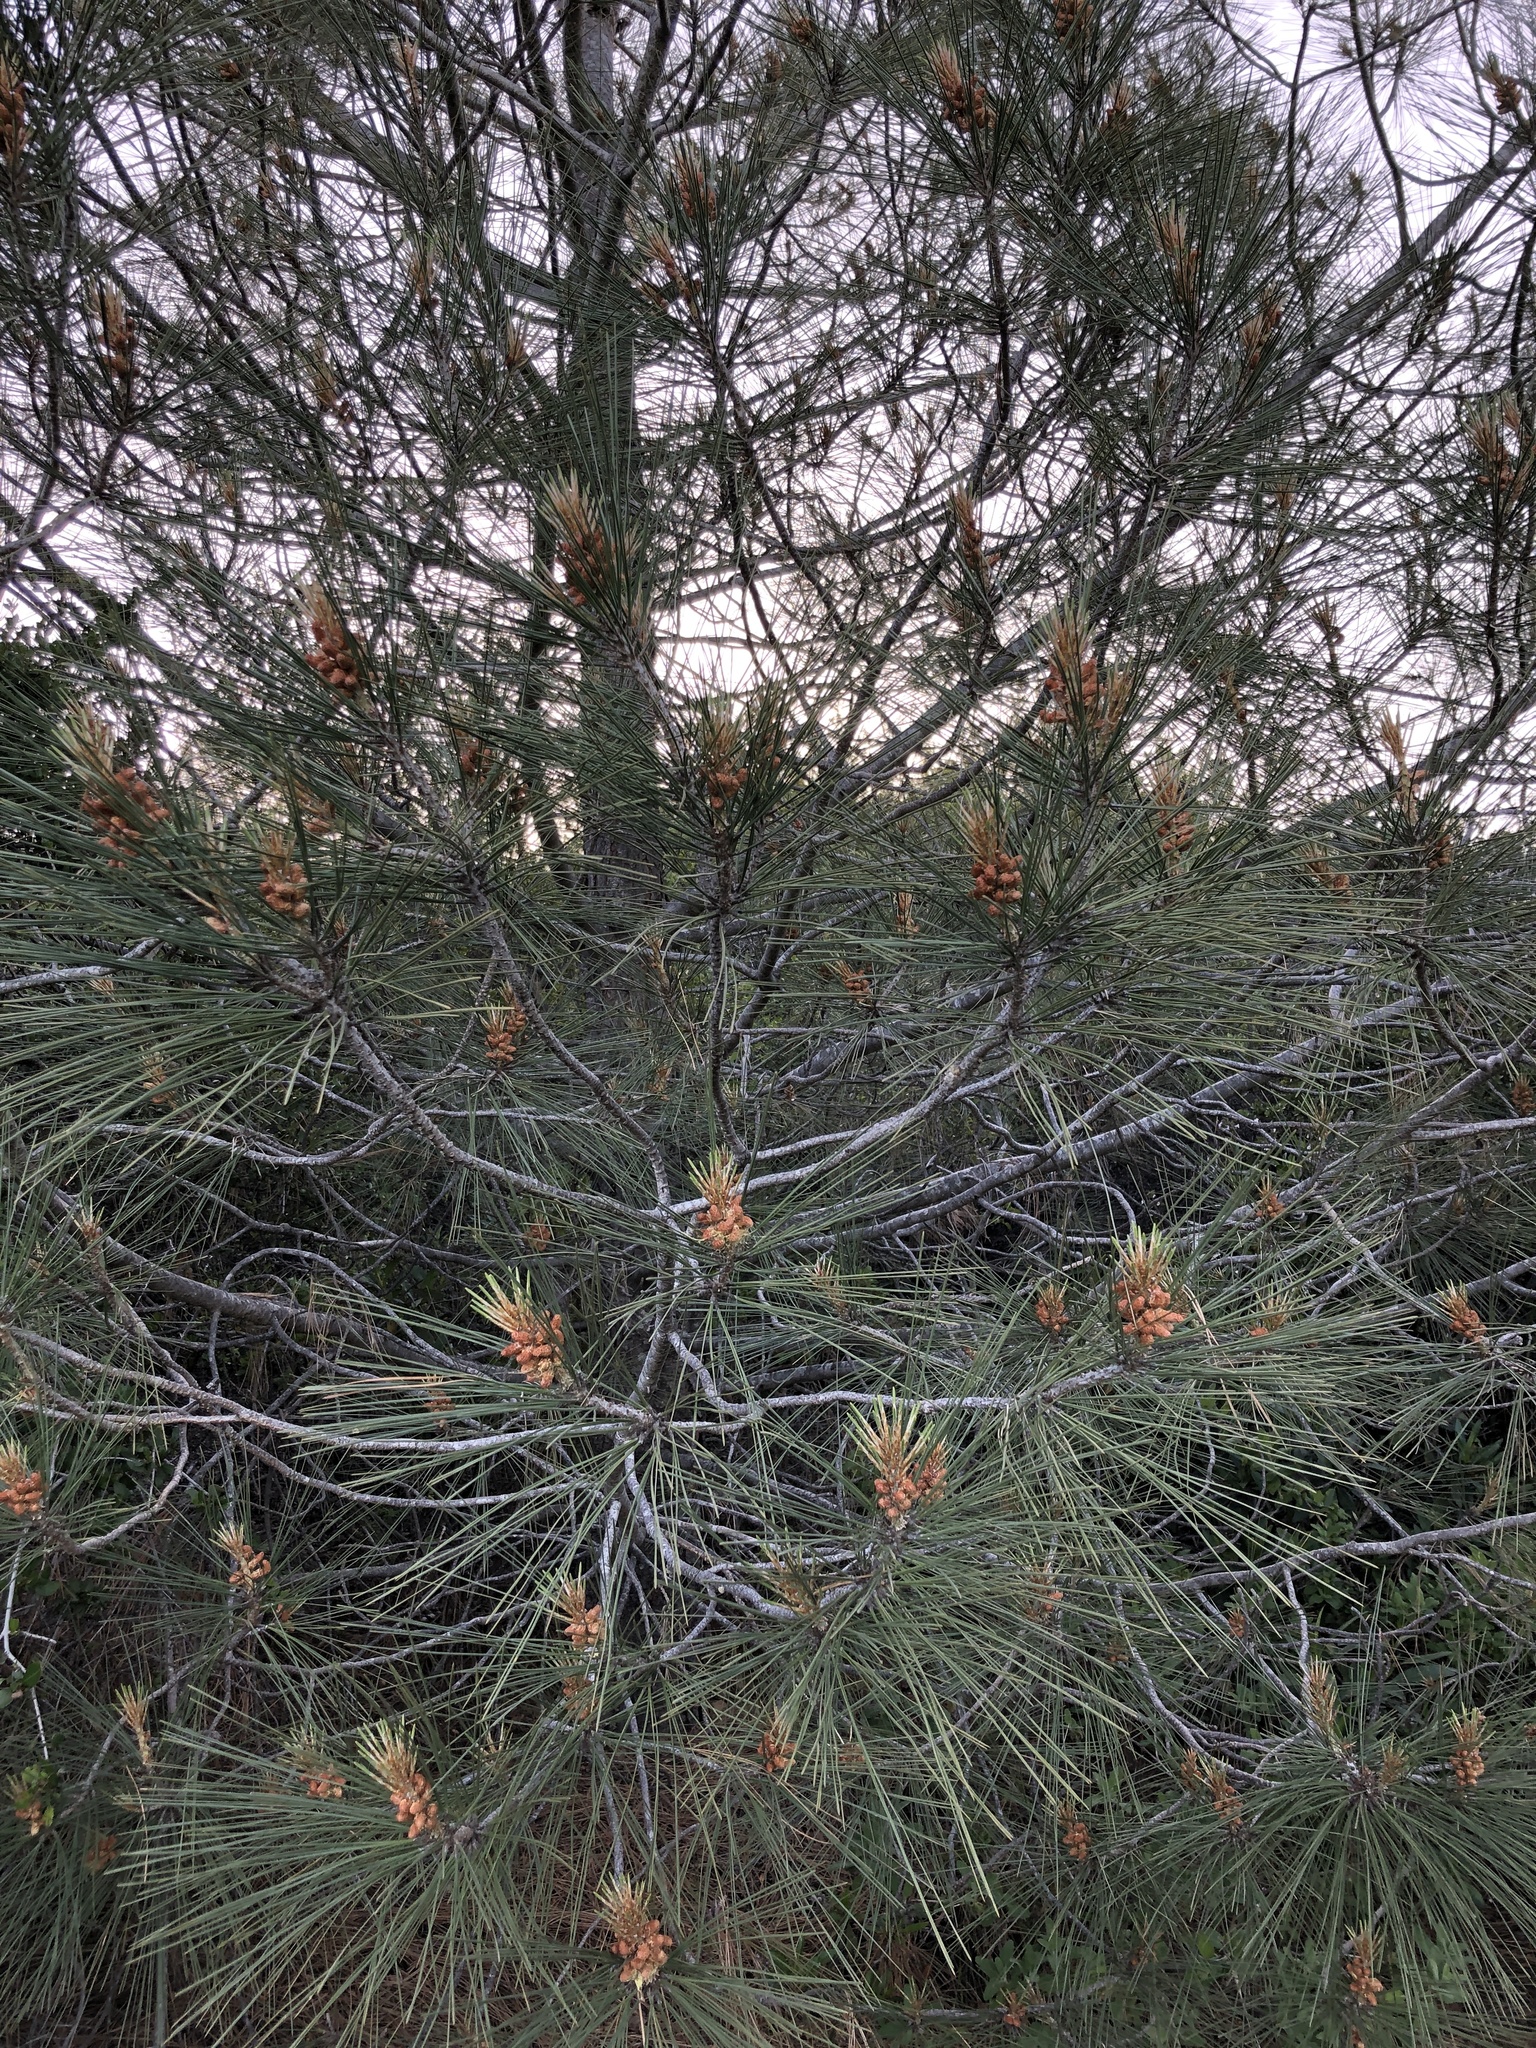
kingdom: Plantae
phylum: Tracheophyta
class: Pinopsida
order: Pinales
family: Pinaceae
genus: Pinus
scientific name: Pinus sabiniana
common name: Bull pine
